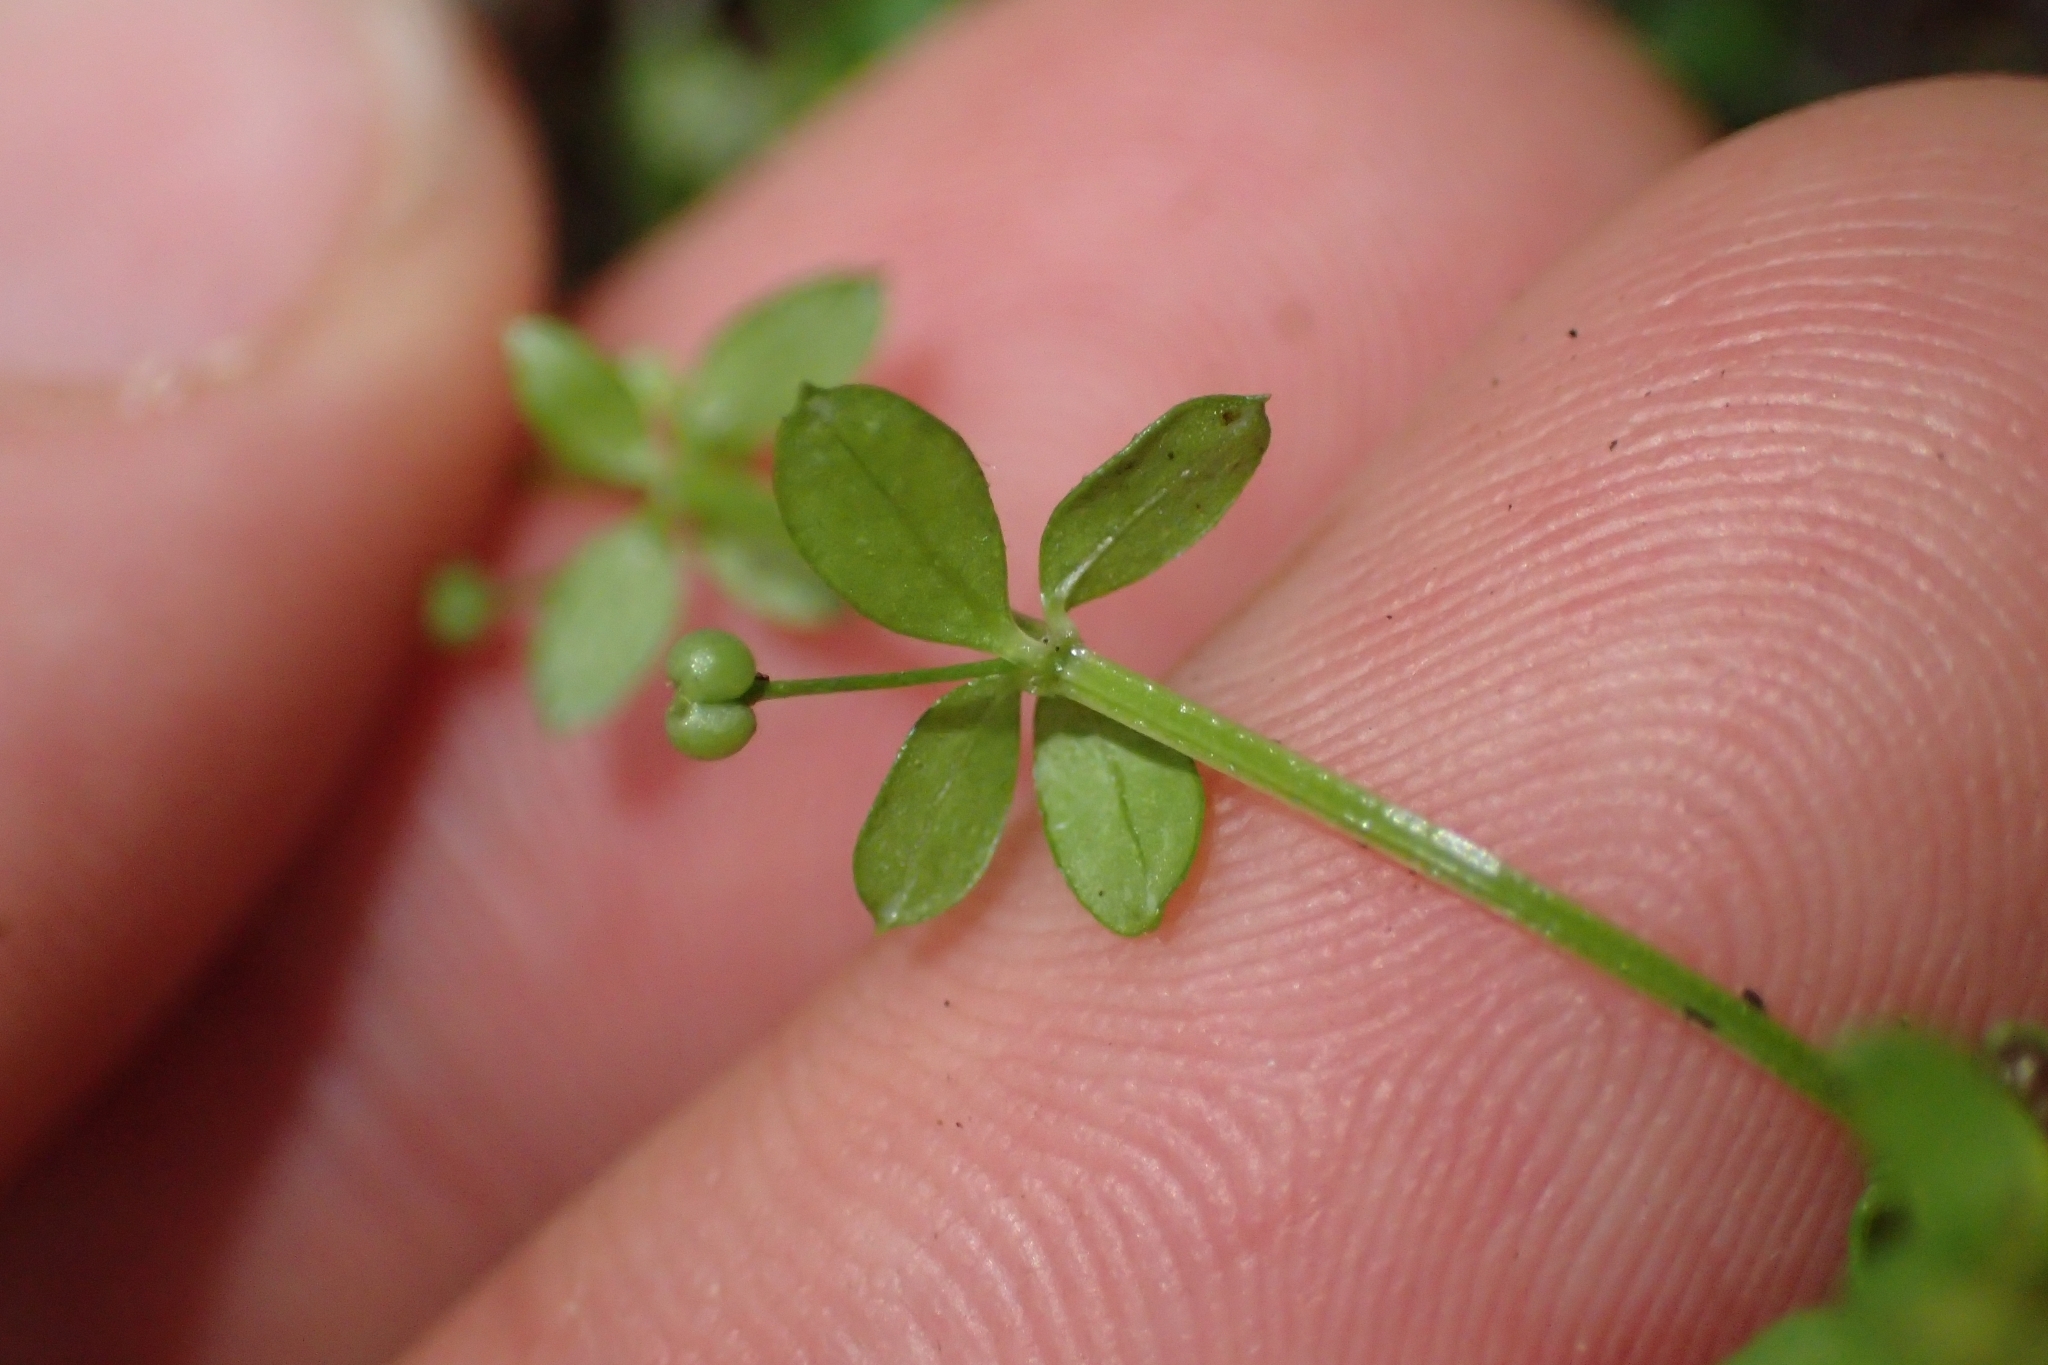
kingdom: Plantae
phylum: Tracheophyta
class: Magnoliopsida
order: Gentianales
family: Rubiaceae
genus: Galium
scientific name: Galium propinquum
